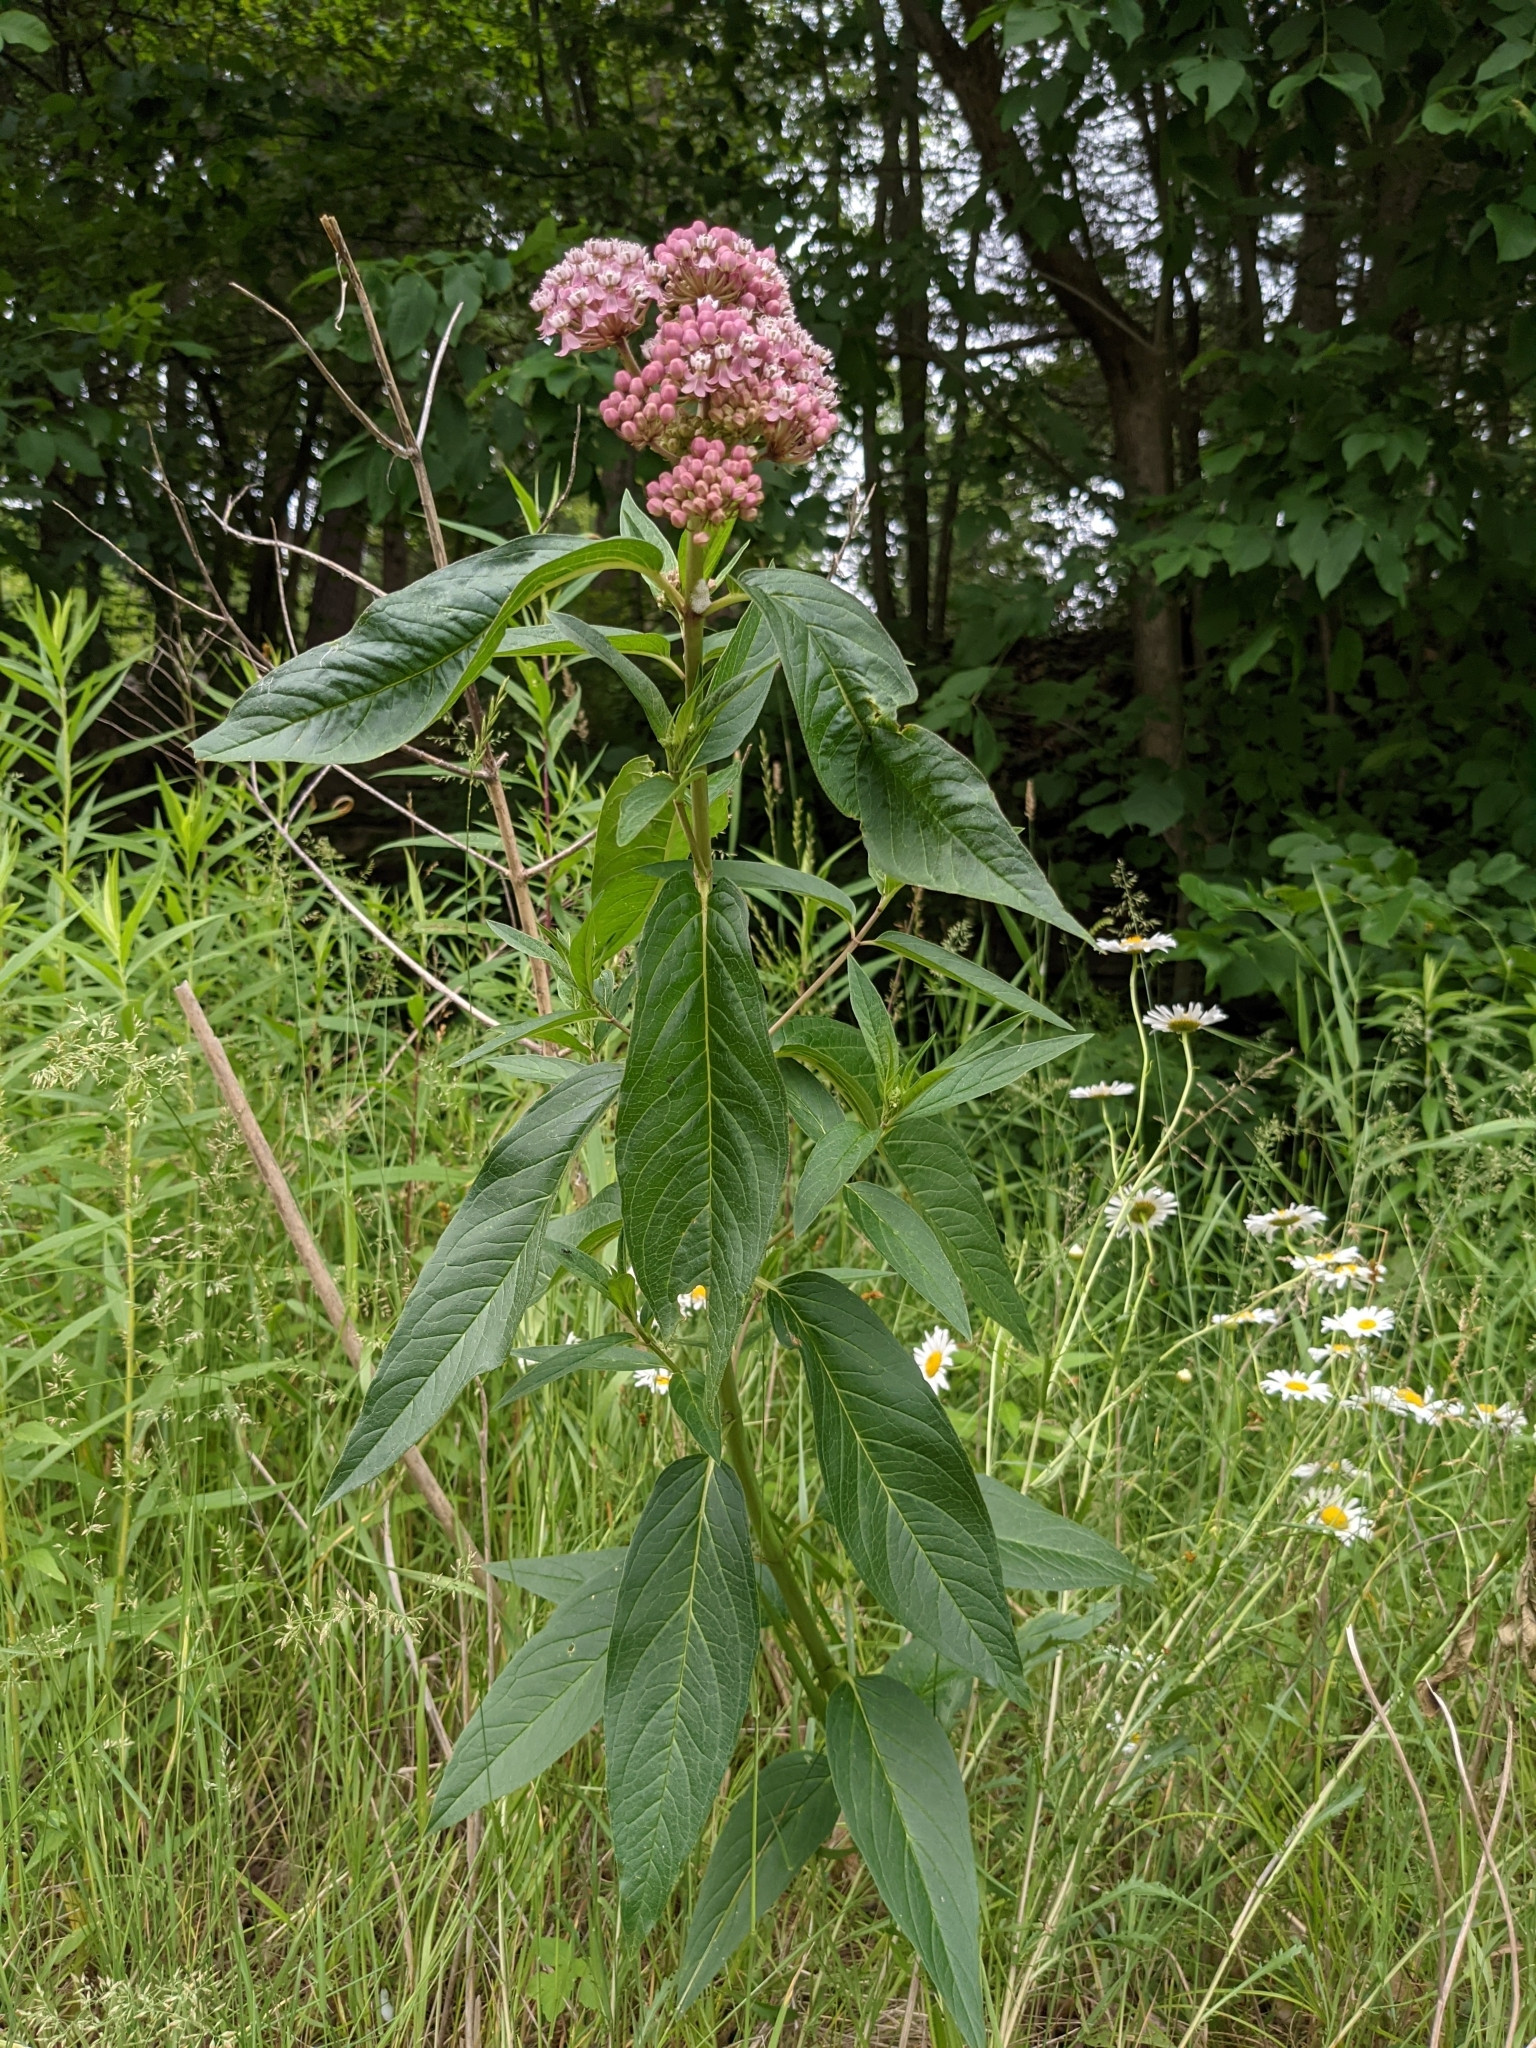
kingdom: Plantae
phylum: Tracheophyta
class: Magnoliopsida
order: Gentianales
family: Apocynaceae
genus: Asclepias
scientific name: Asclepias incarnata
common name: Swamp milkweed
